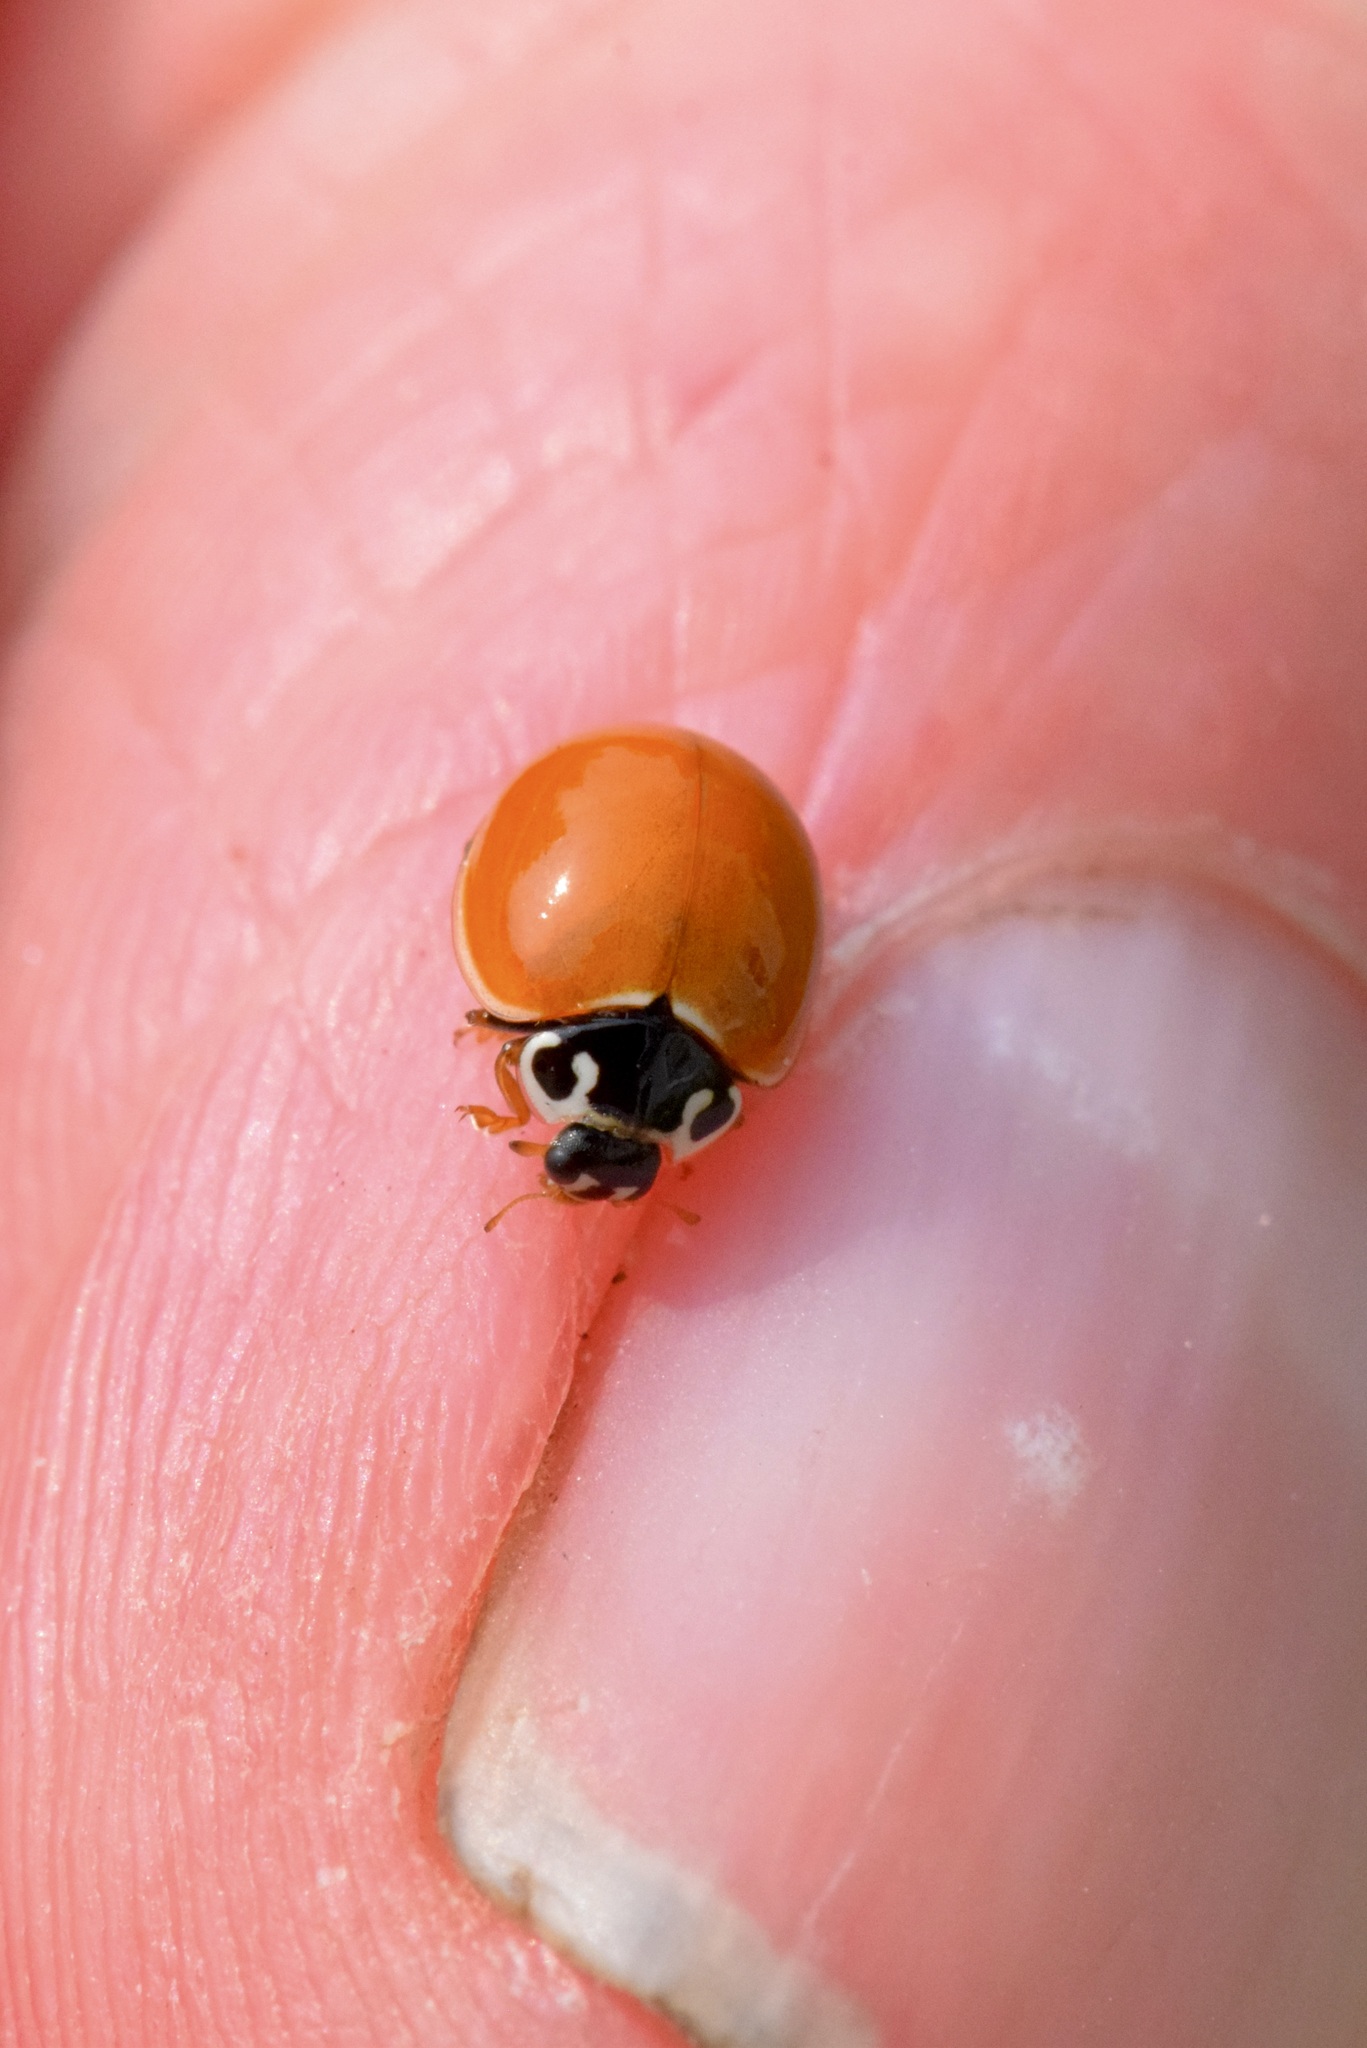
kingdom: Animalia
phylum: Arthropoda
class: Insecta
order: Coleoptera
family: Coccinellidae
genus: Cycloneda
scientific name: Cycloneda munda
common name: Polished lady beetle
